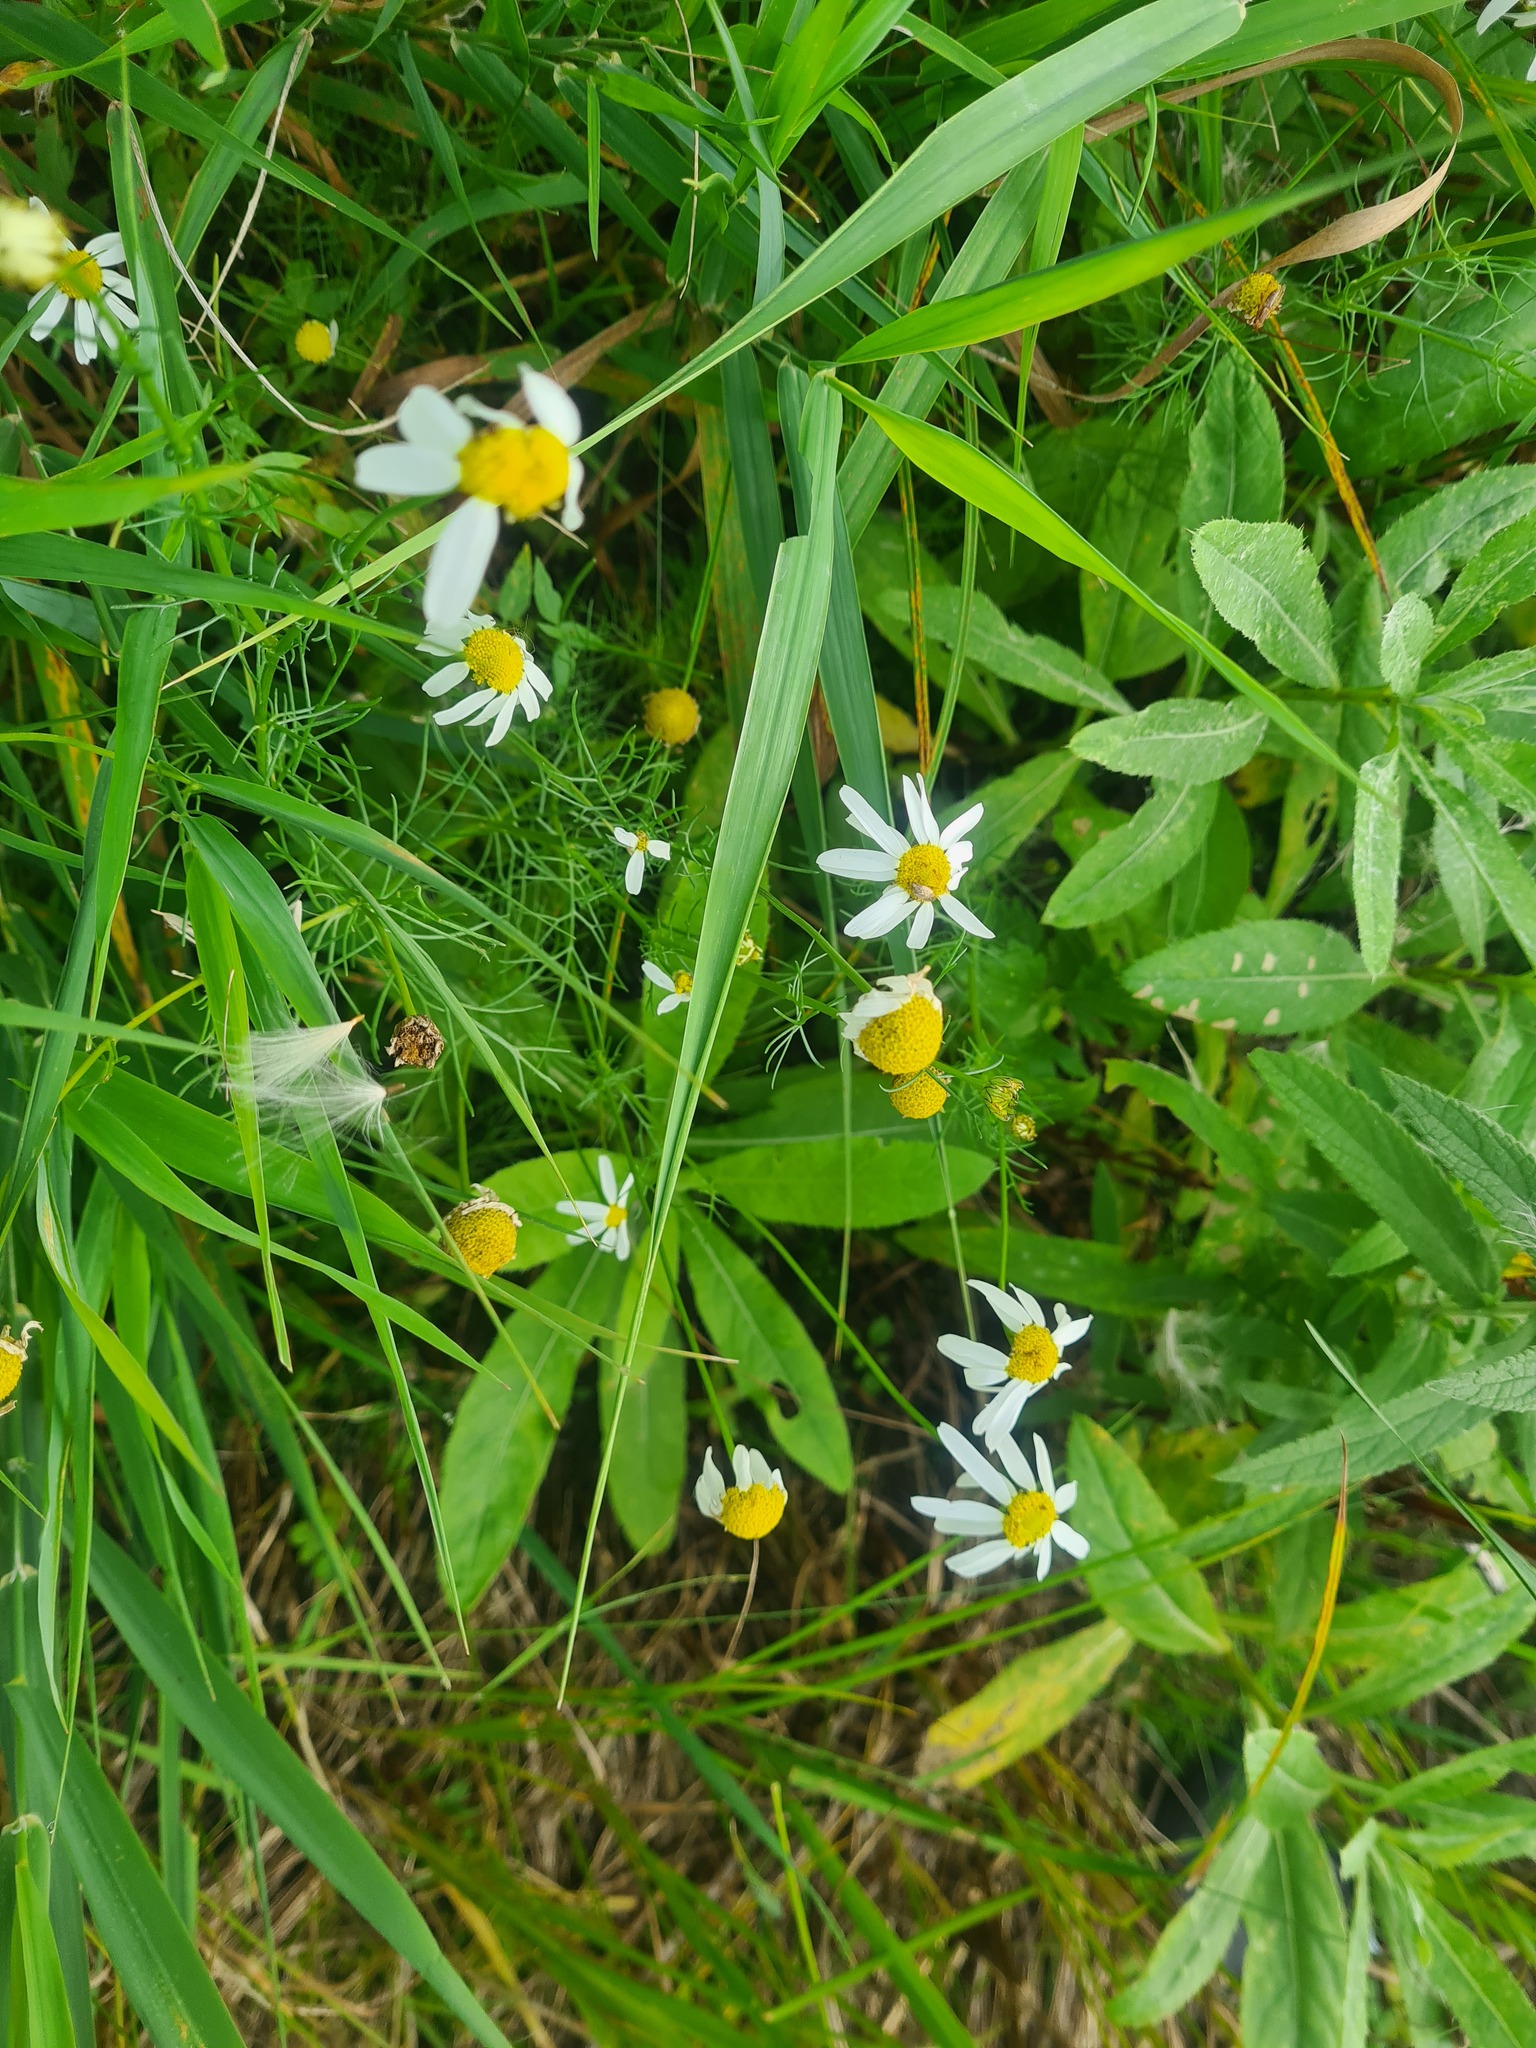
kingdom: Plantae
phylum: Tracheophyta
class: Magnoliopsida
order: Asterales
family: Asteraceae
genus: Tripleurospermum
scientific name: Tripleurospermum inodorum
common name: Scentless mayweed
